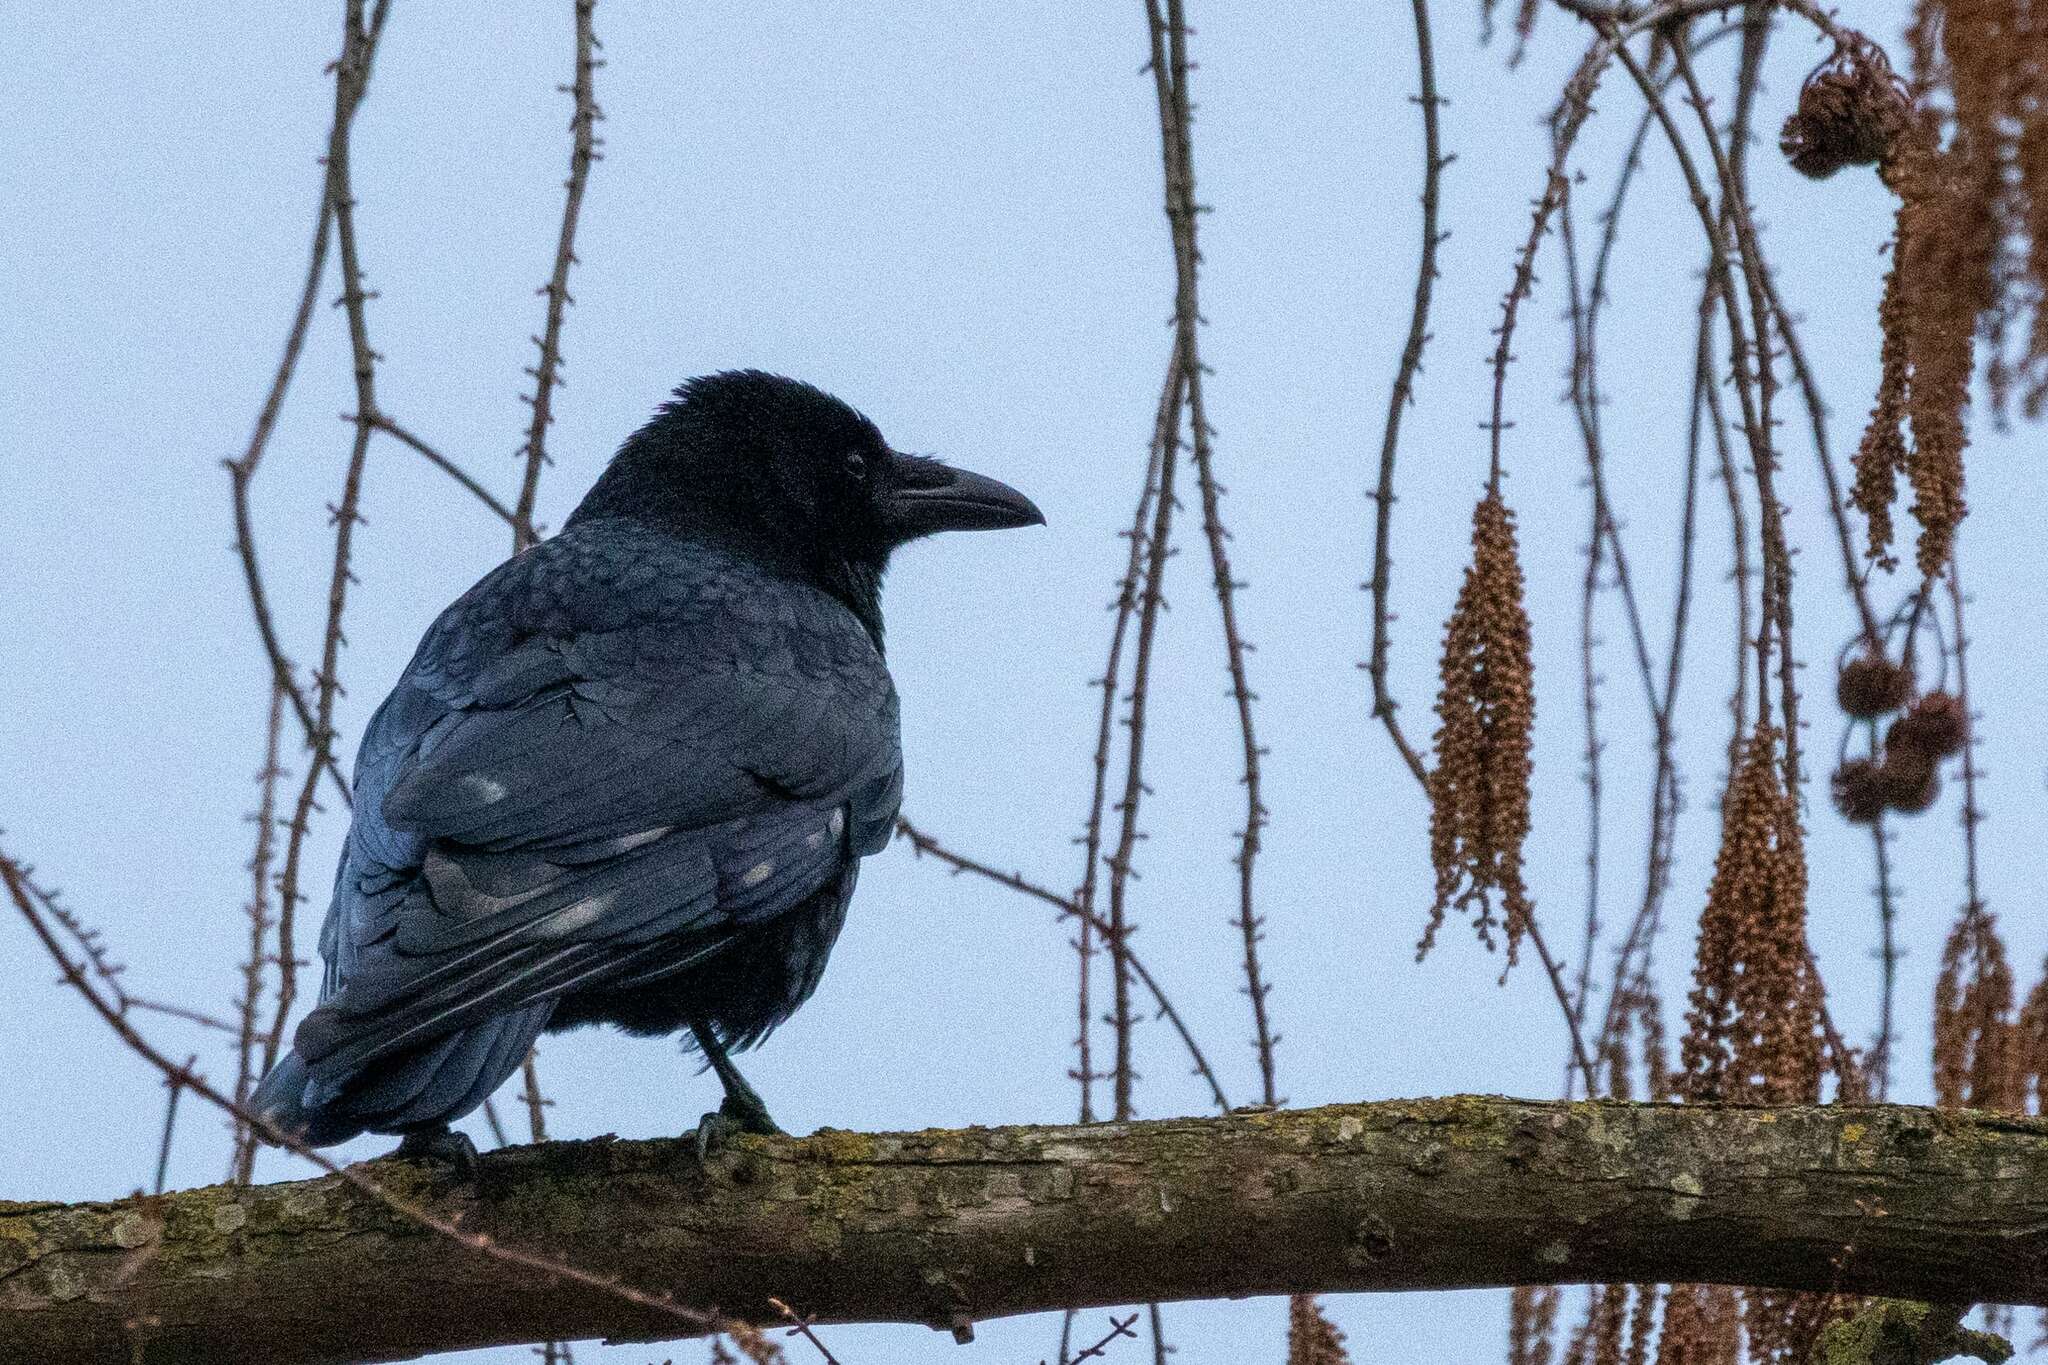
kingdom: Animalia
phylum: Chordata
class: Aves
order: Passeriformes
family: Corvidae
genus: Corvus
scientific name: Corvus corone
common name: Carrion crow
